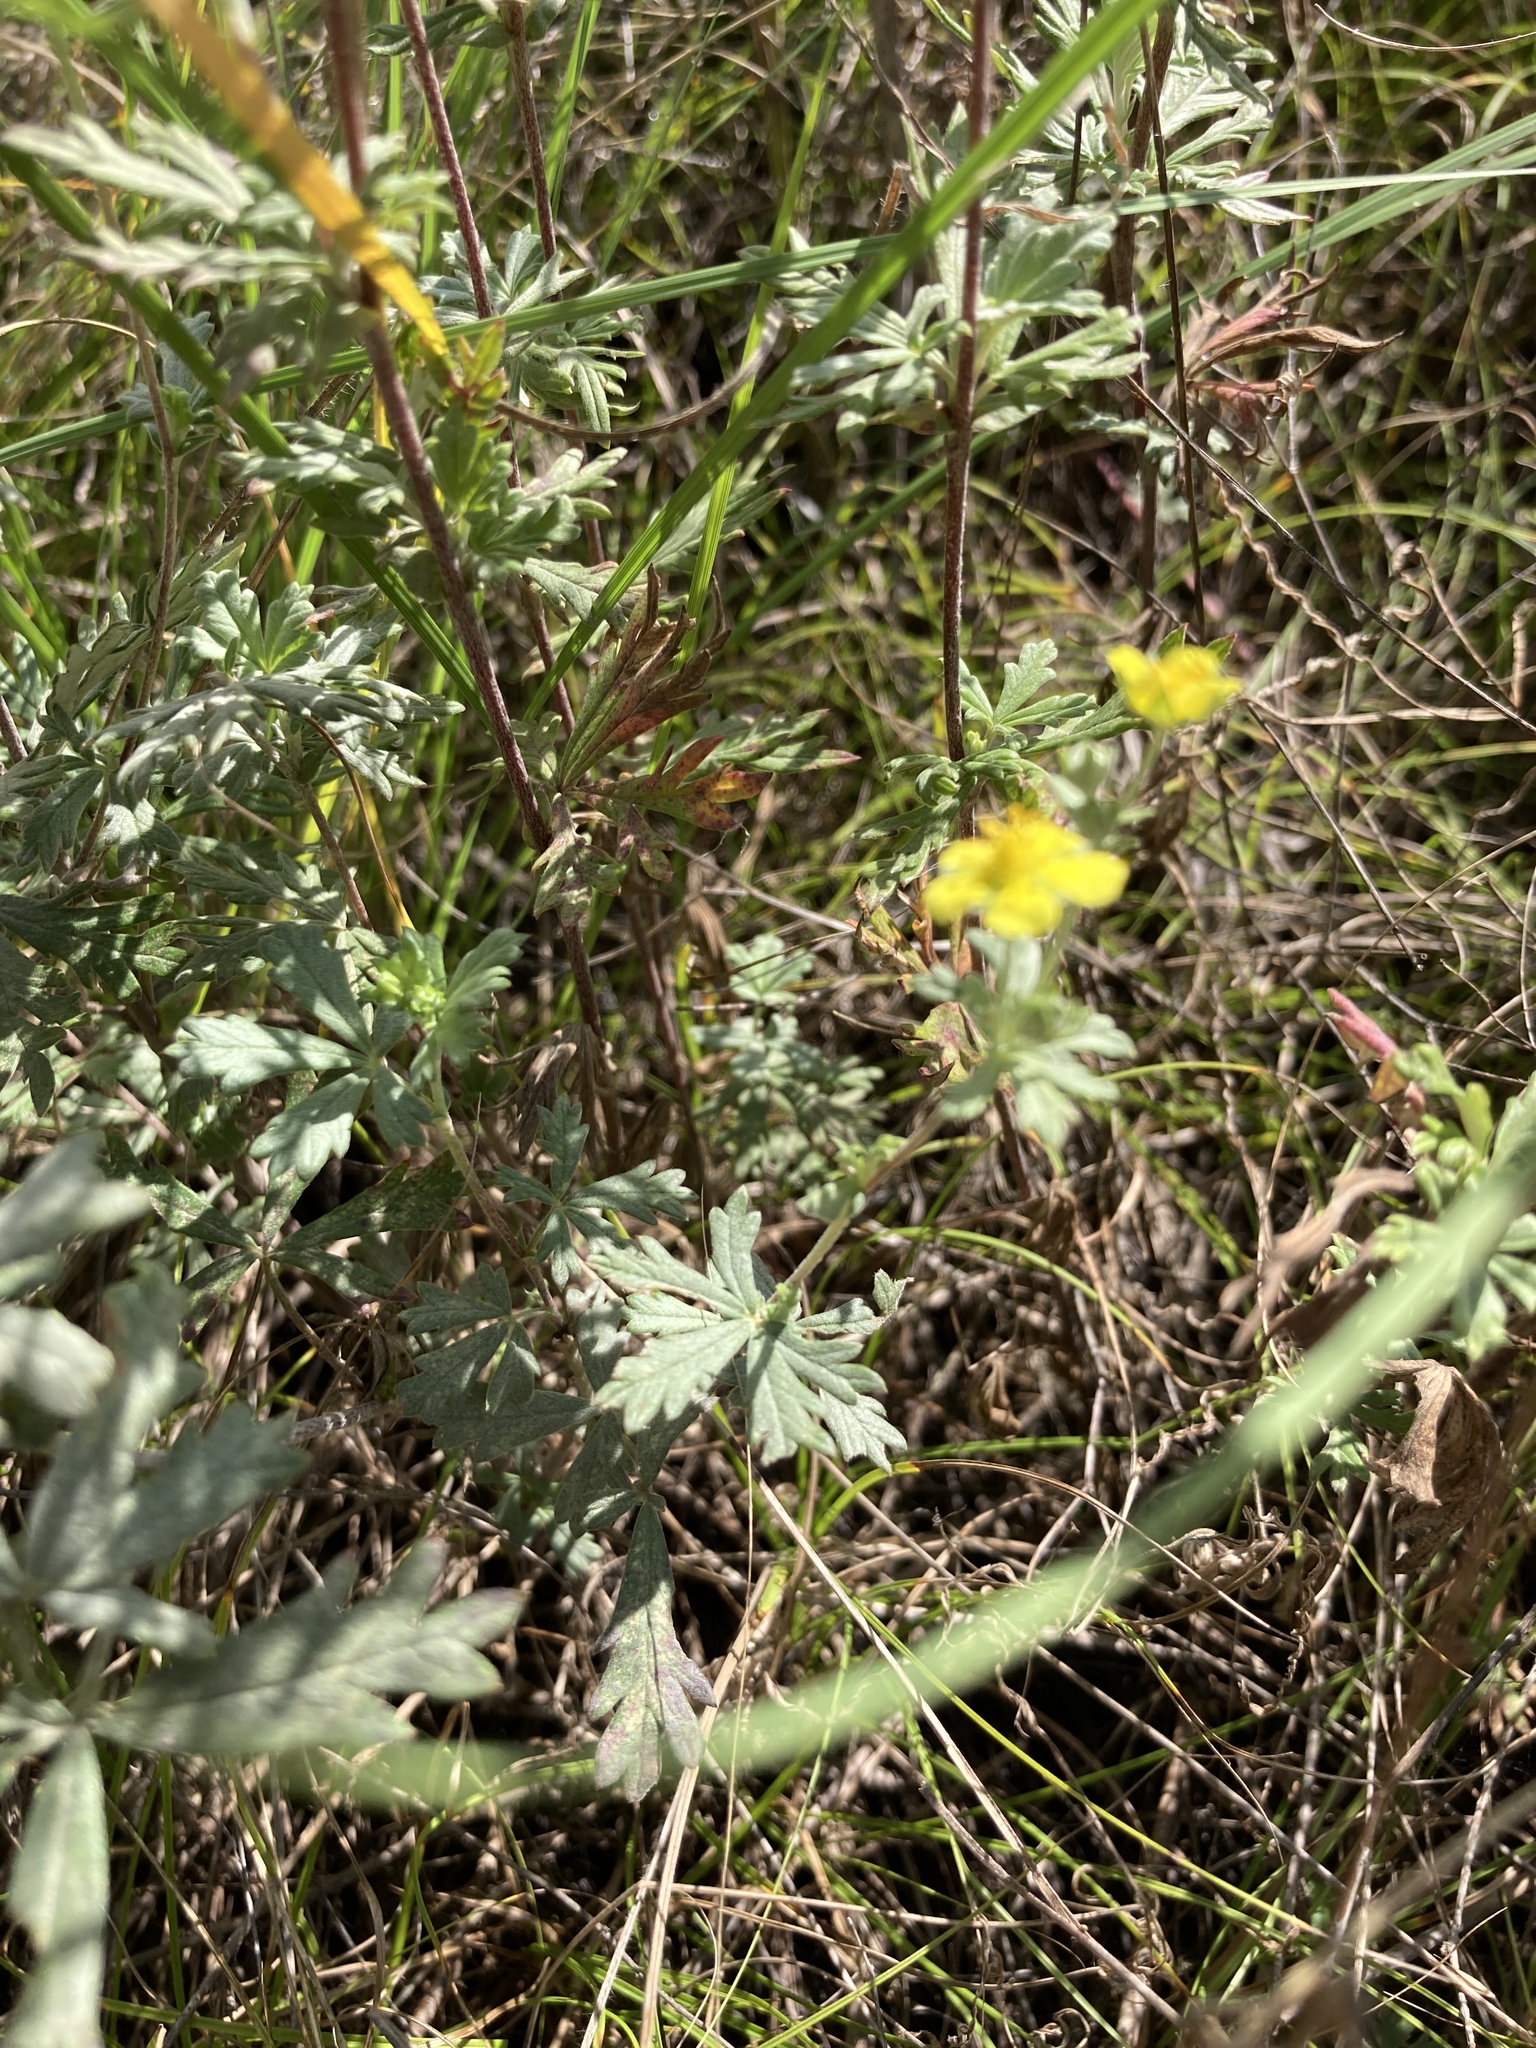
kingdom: Plantae
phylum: Tracheophyta
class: Magnoliopsida
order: Rosales
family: Rosaceae
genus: Potentilla
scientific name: Potentilla argentea
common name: Hoary cinquefoil
